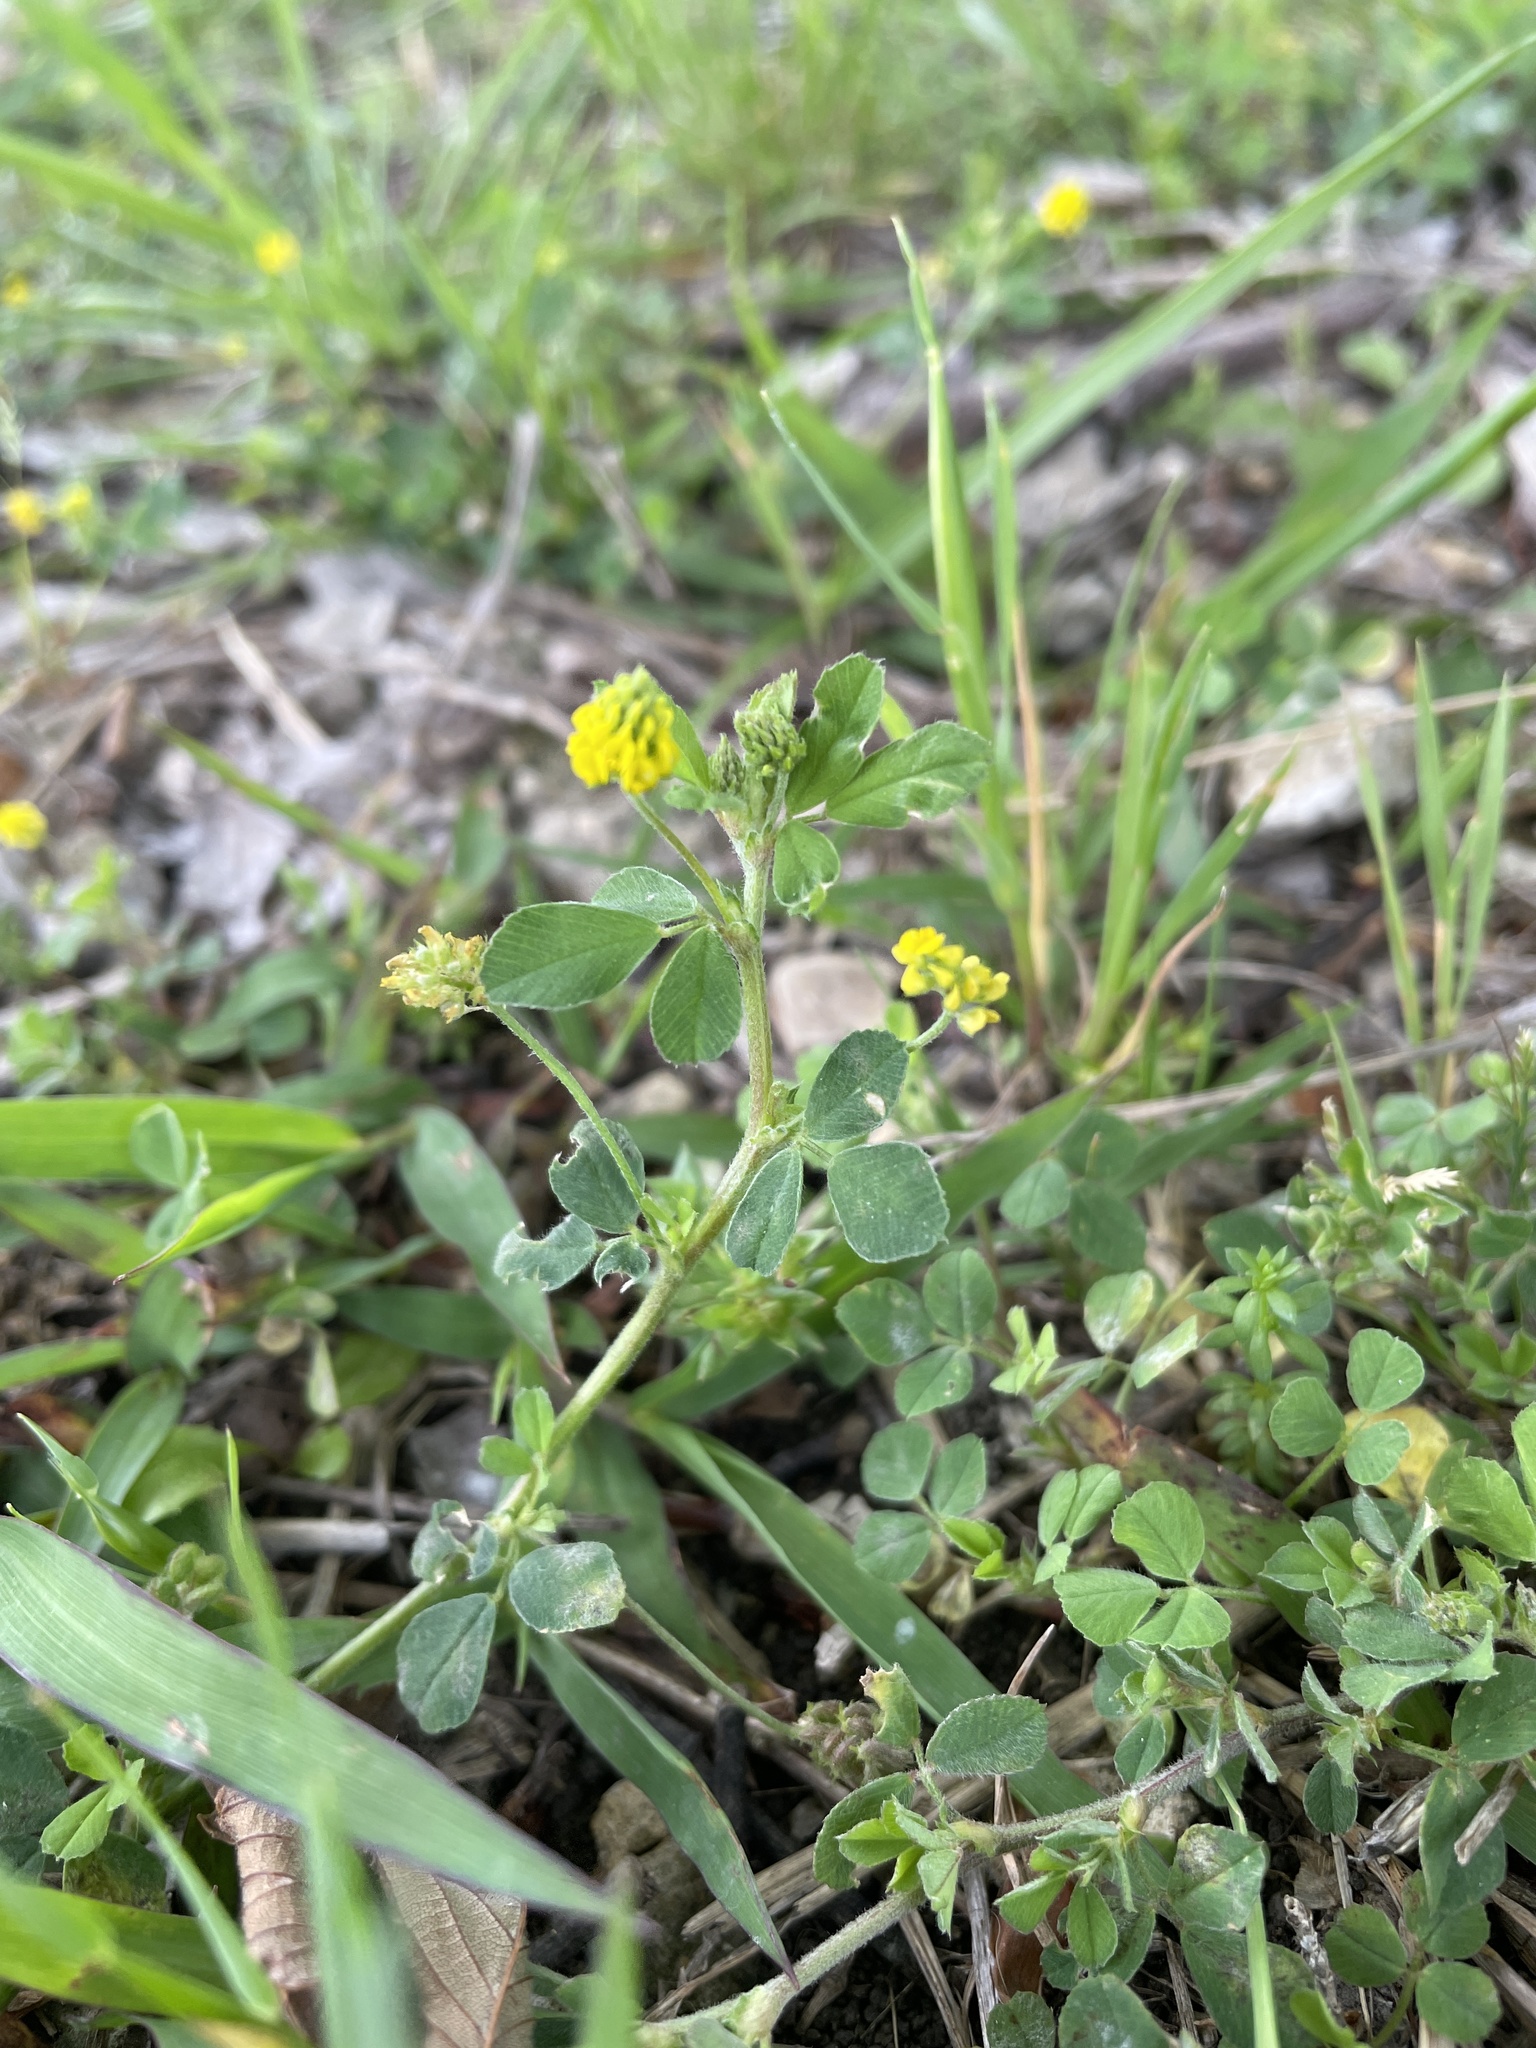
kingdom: Plantae
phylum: Tracheophyta
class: Magnoliopsida
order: Fabales
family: Fabaceae
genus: Medicago
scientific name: Medicago lupulina
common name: Black medick
